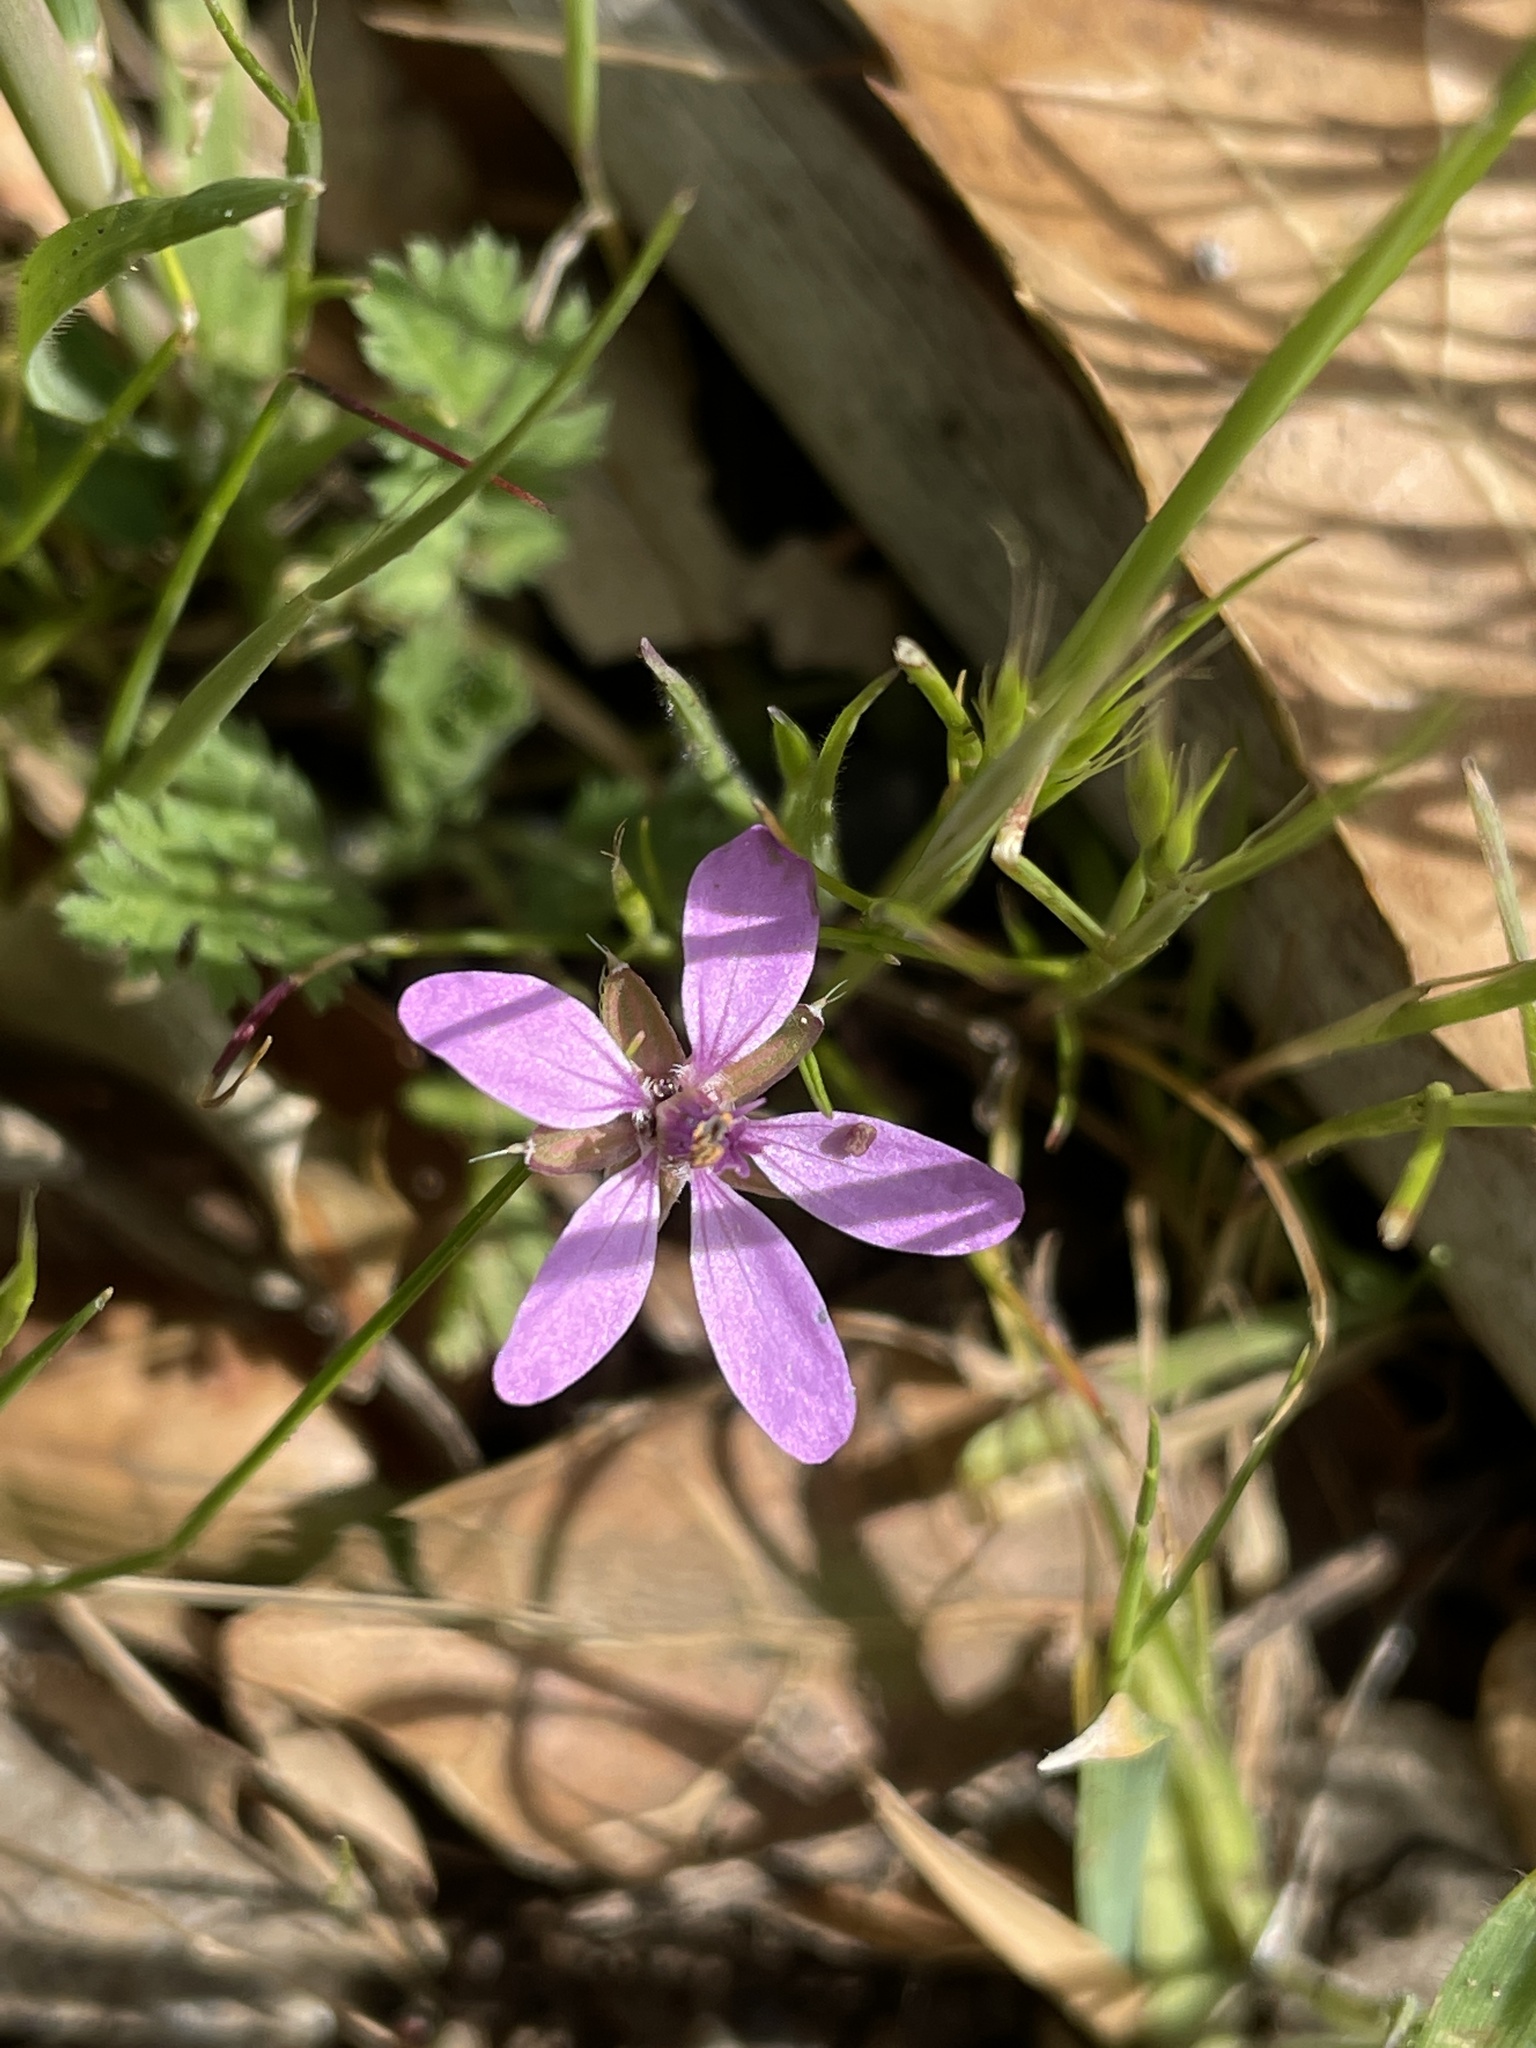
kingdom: Plantae
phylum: Tracheophyta
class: Magnoliopsida
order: Geraniales
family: Geraniaceae
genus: Erodium
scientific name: Erodium cicutarium
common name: Common stork's-bill
